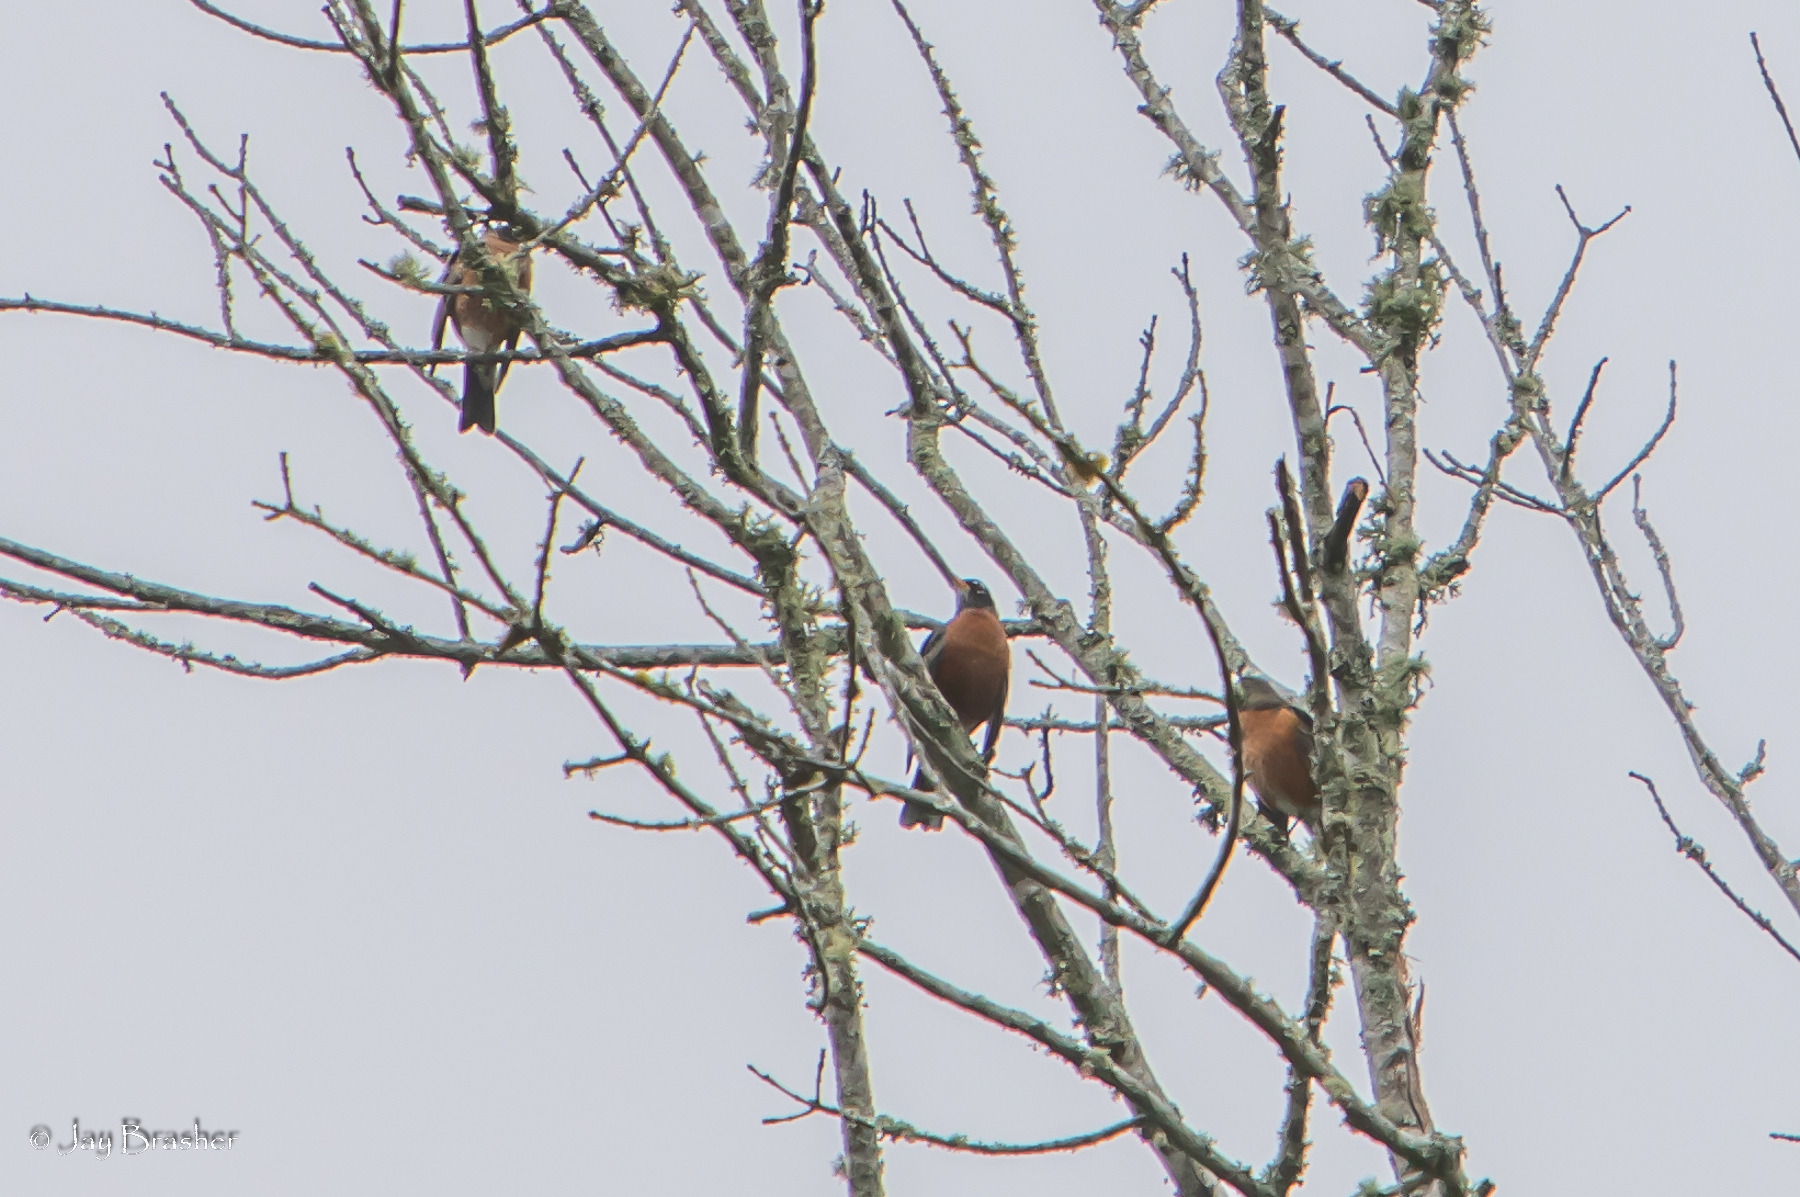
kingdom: Animalia
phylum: Chordata
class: Aves
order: Passeriformes
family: Turdidae
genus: Turdus
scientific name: Turdus migratorius
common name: American robin
